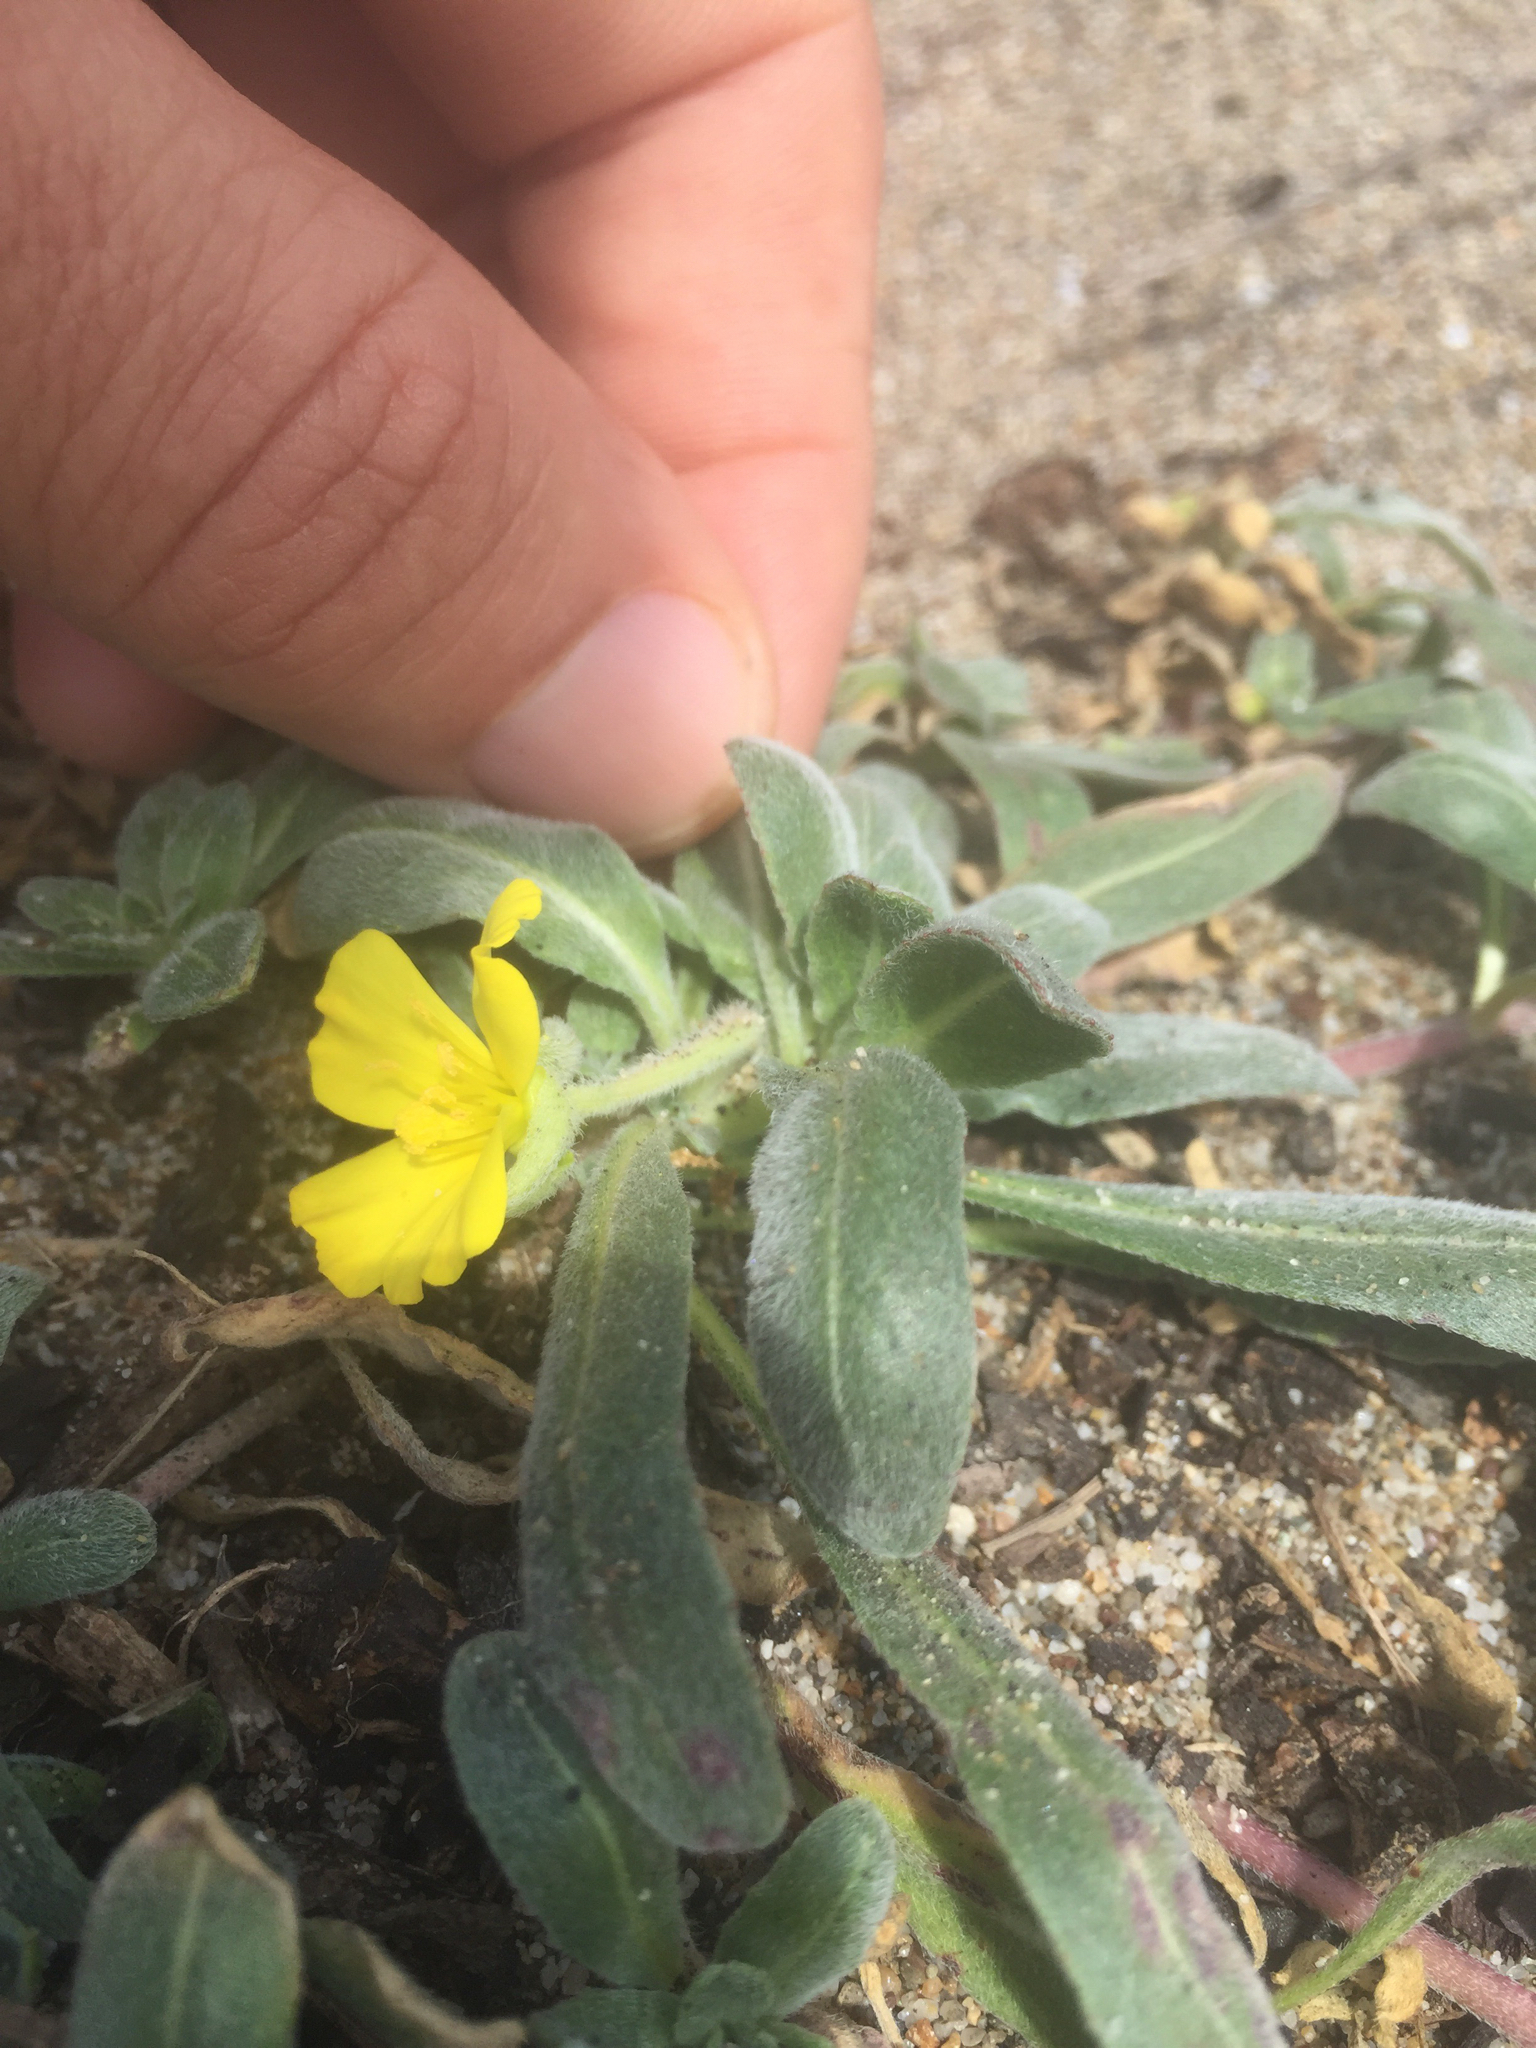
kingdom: Plantae
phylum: Tracheophyta
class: Magnoliopsida
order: Myrtales
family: Onagraceae
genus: Camissoniopsis
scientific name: Camissoniopsis cheiranthifolia
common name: Beach suncup
